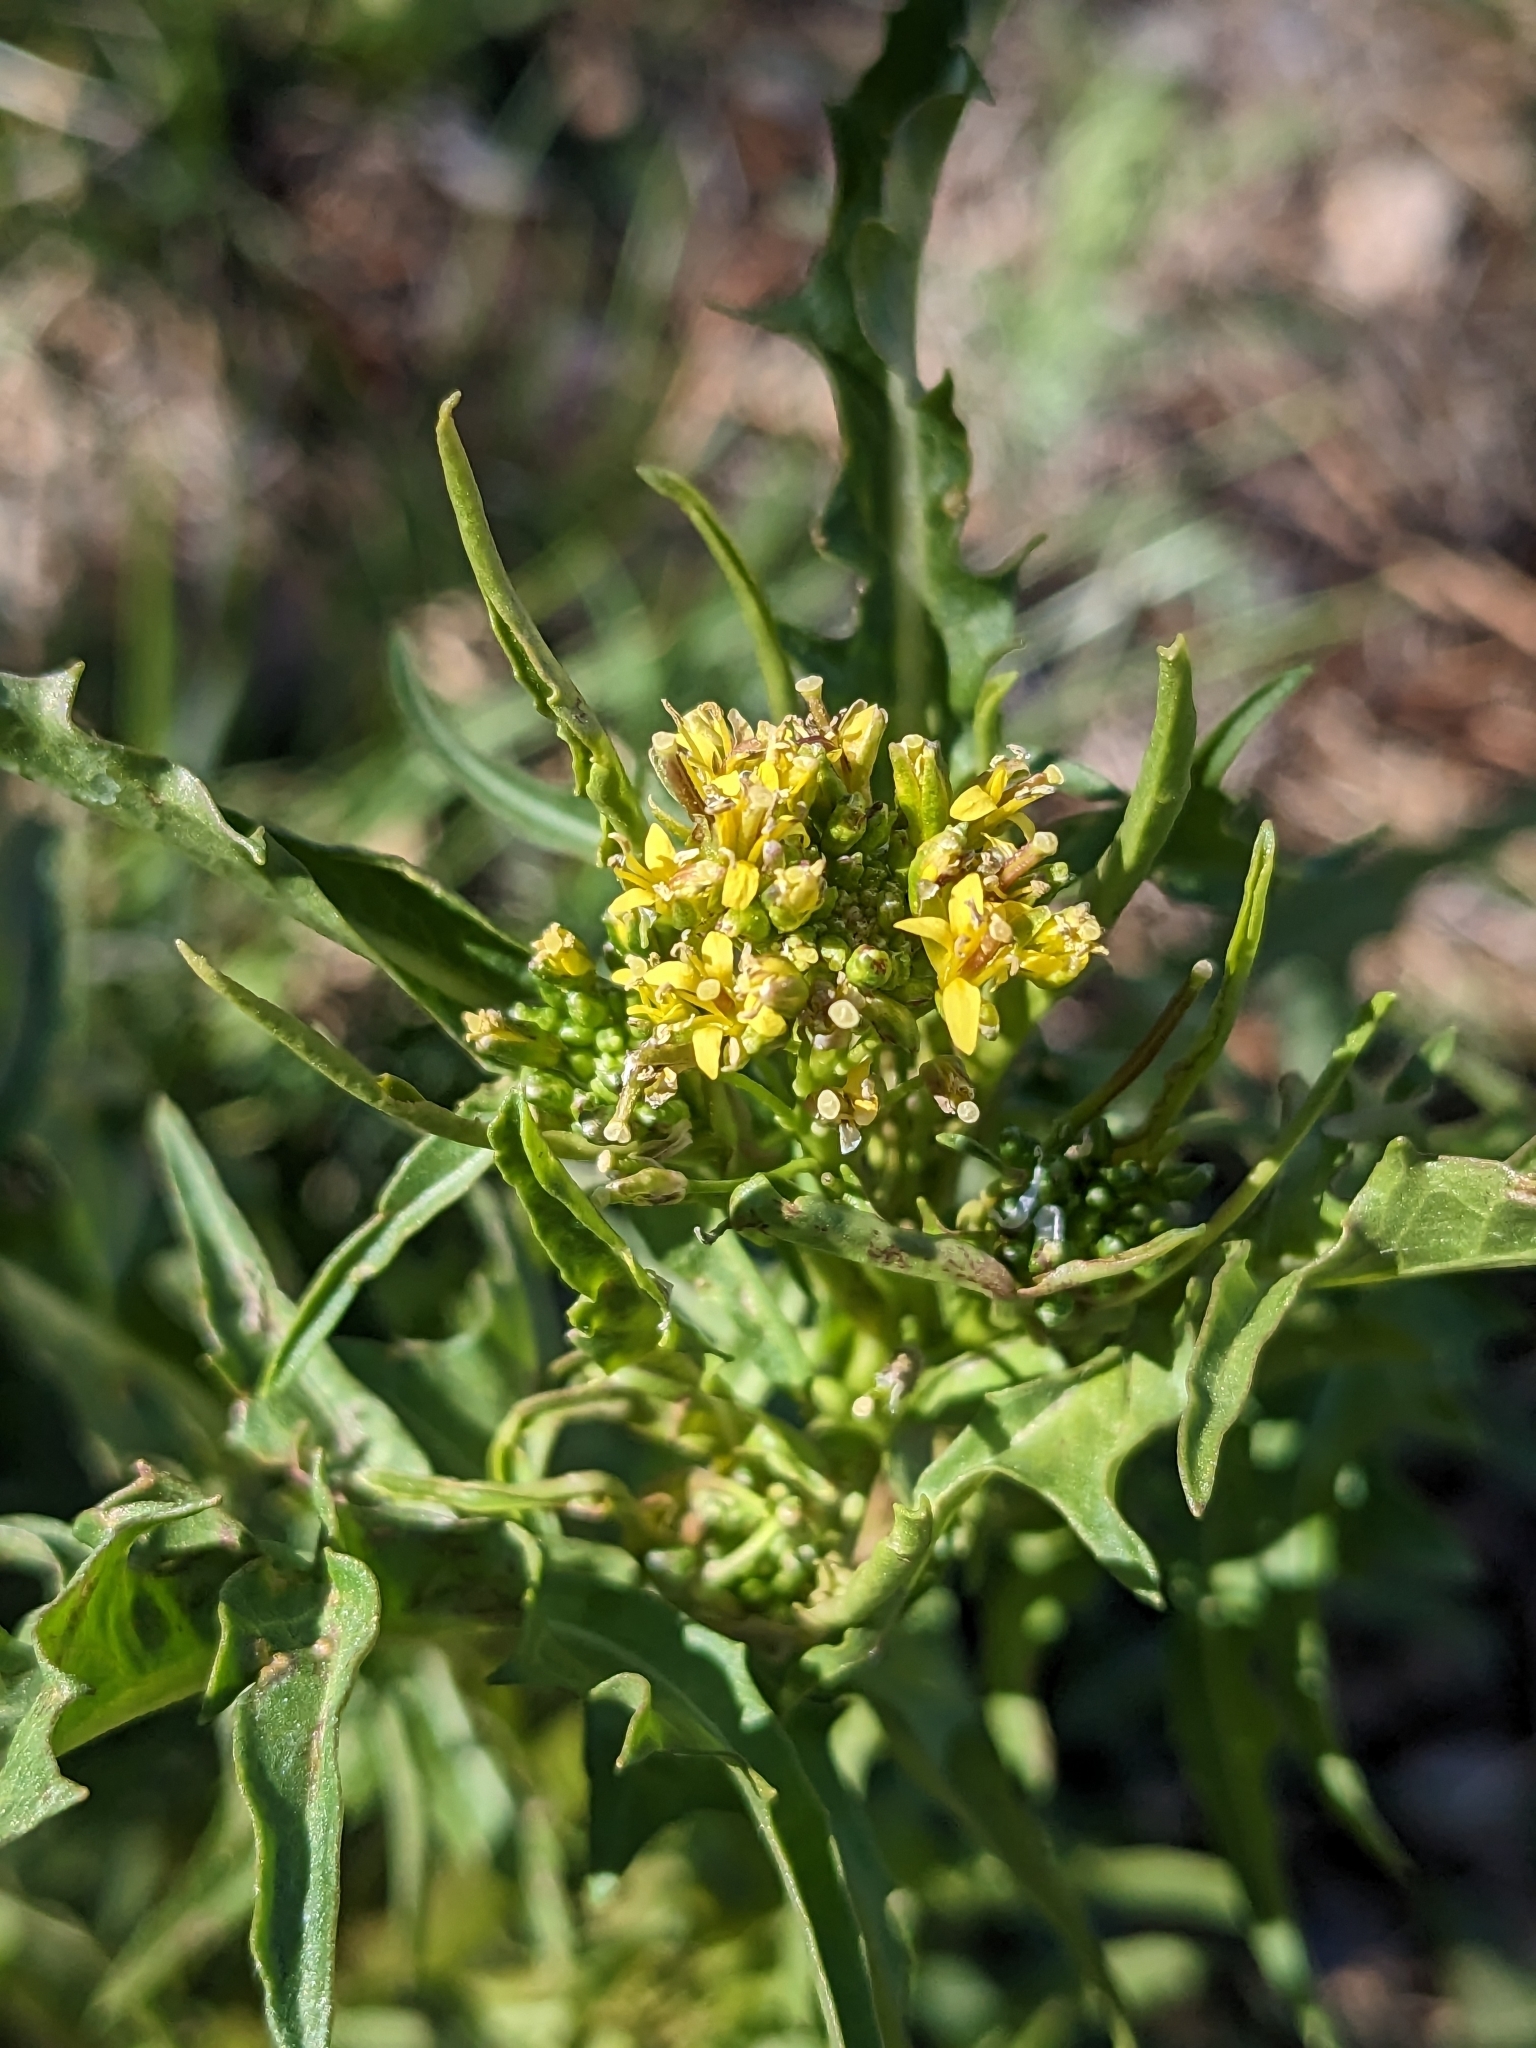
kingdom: Plantae
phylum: Tracheophyta
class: Magnoliopsida
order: Brassicales
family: Brassicaceae
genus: Sisymbrium
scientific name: Sisymbrium irio
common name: London rocket
